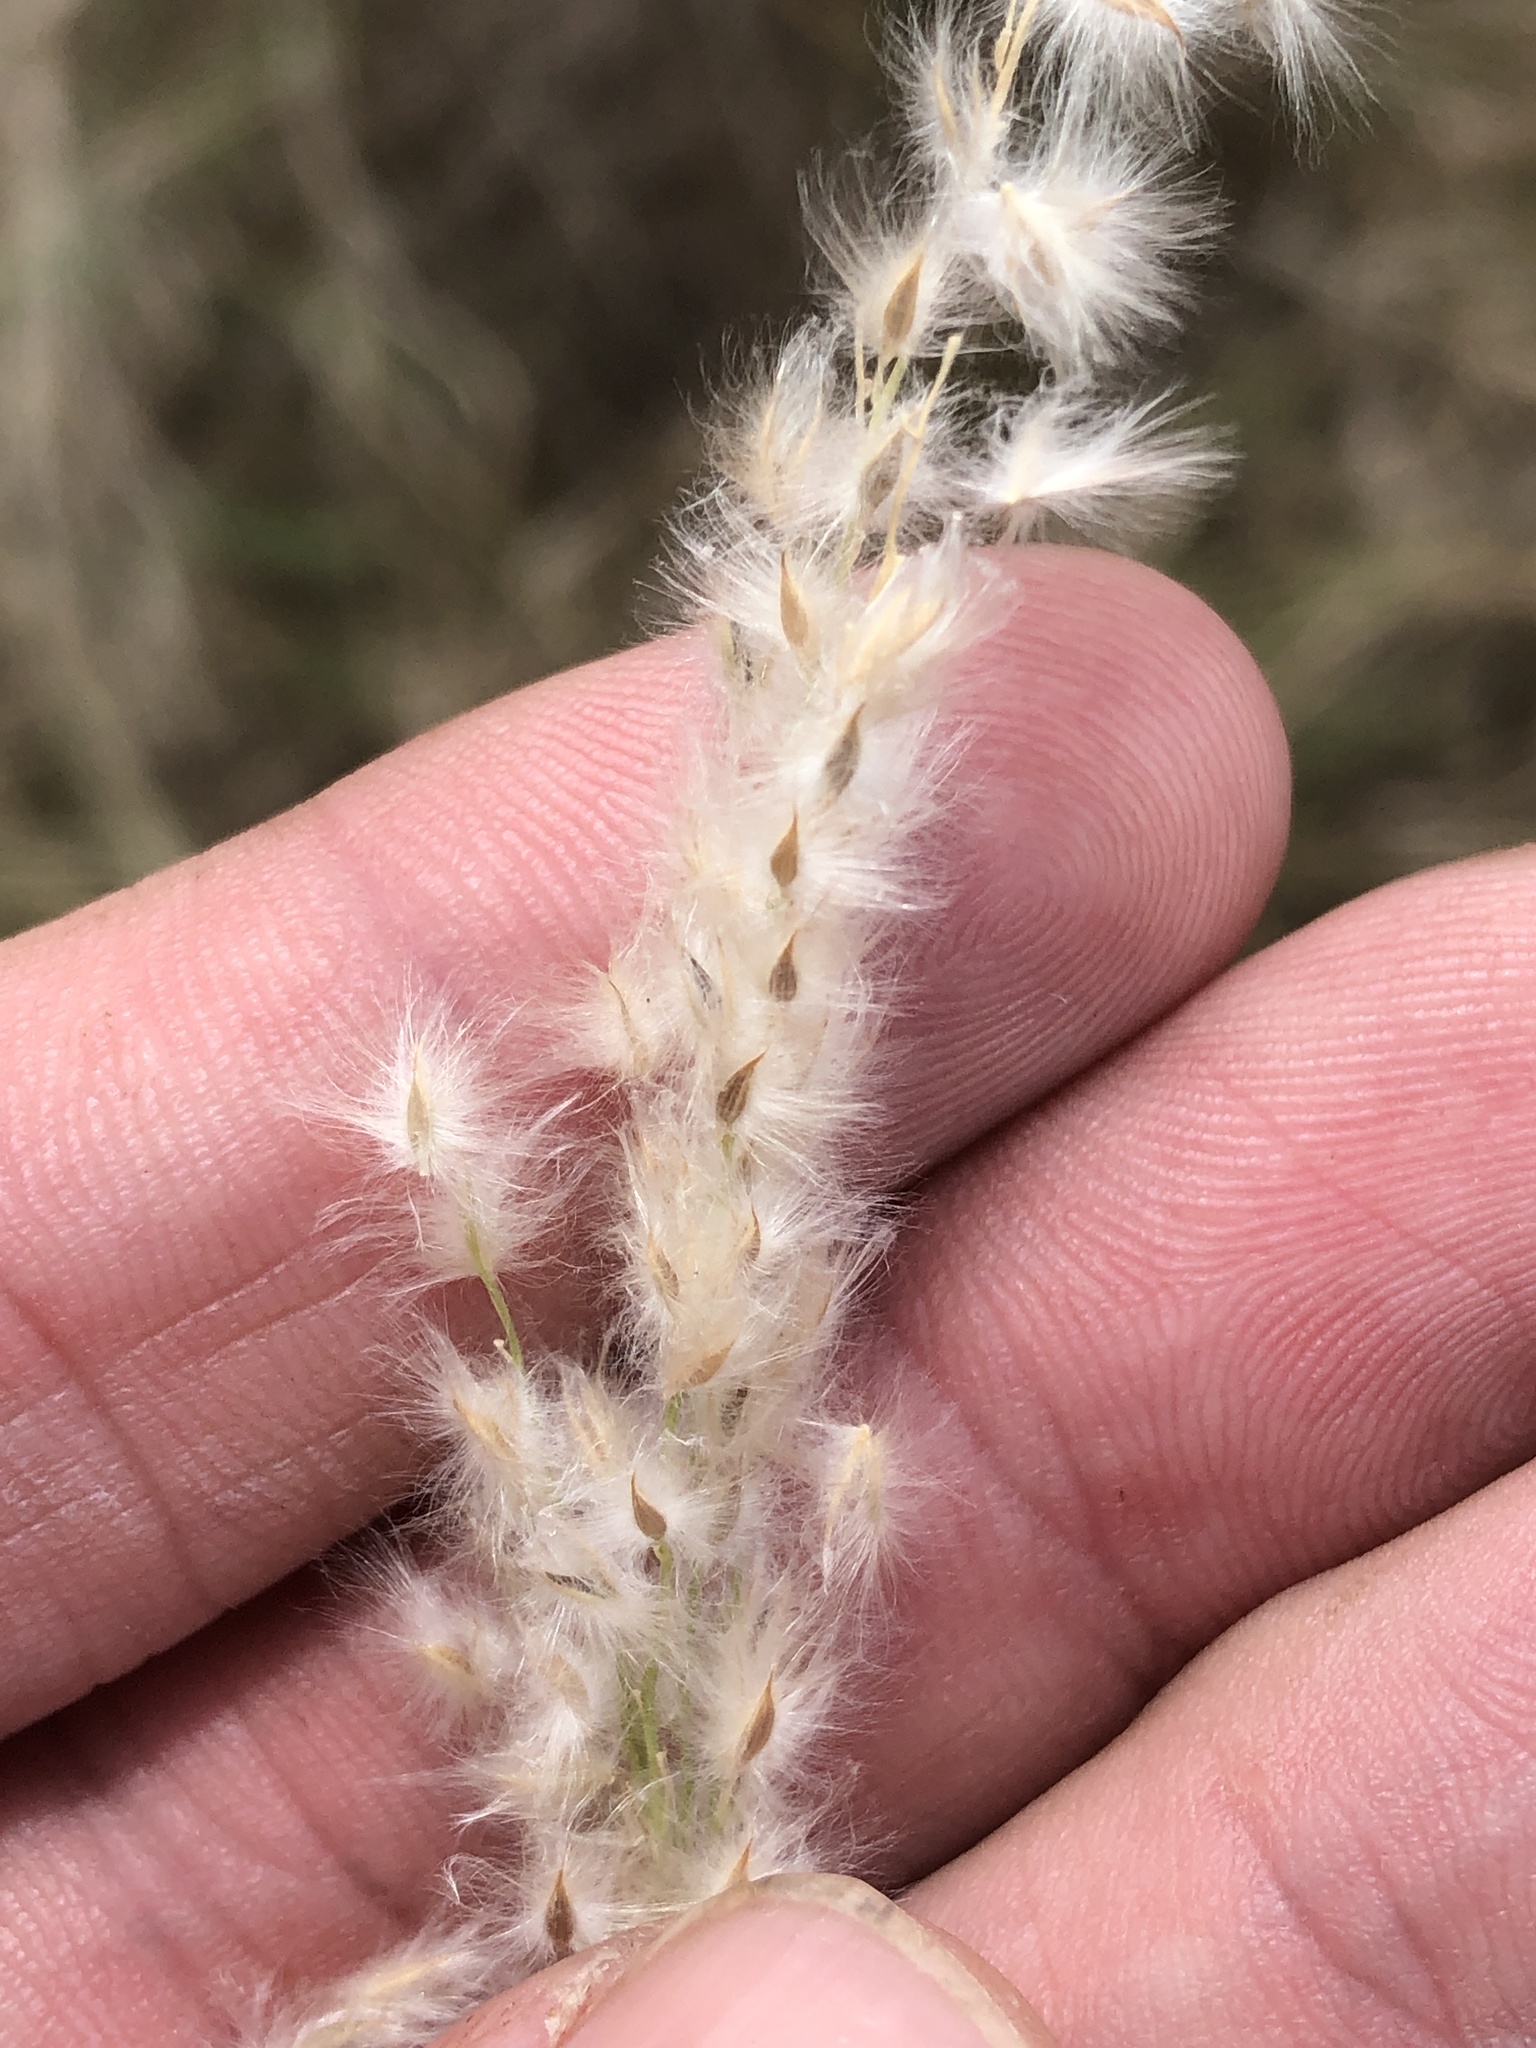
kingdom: Plantae
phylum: Tracheophyta
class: Liliopsida
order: Poales
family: Poaceae
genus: Digitaria
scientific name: Digitaria californica
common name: Arizona cottontop
